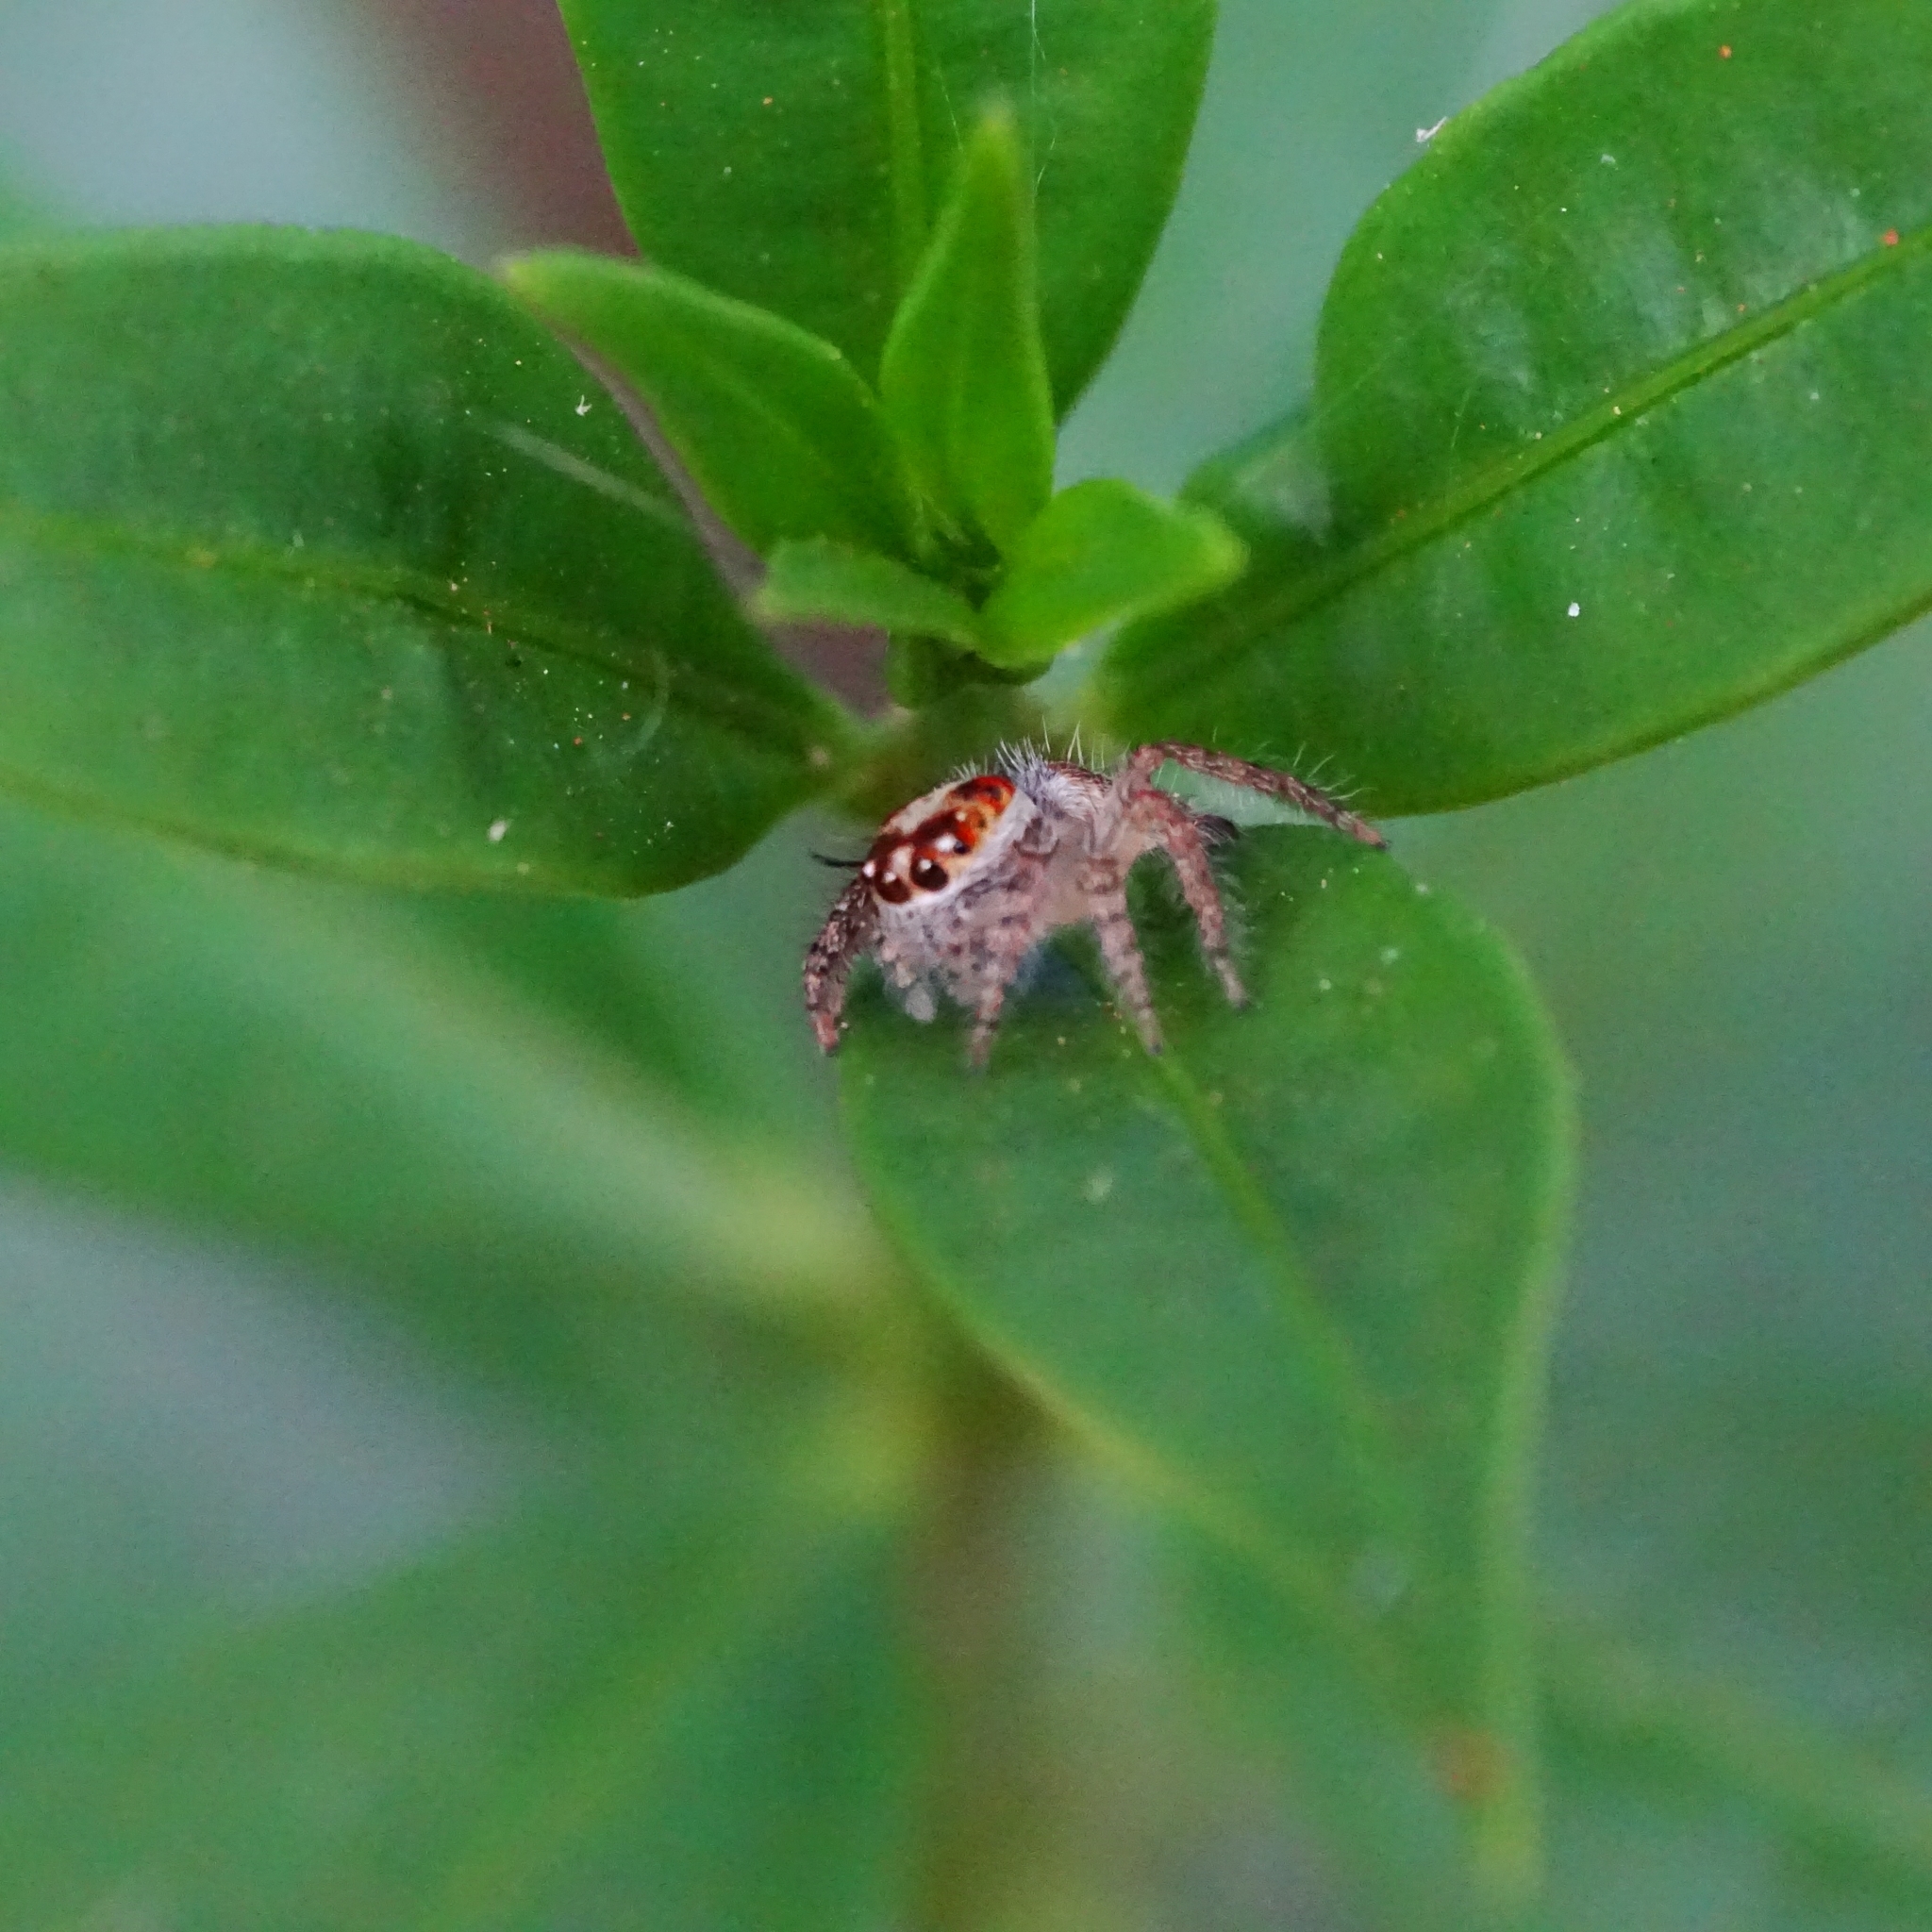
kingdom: Animalia
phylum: Arthropoda
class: Arachnida
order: Araneae
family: Salticidae
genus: Hyllus
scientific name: Hyllus semicupreus
